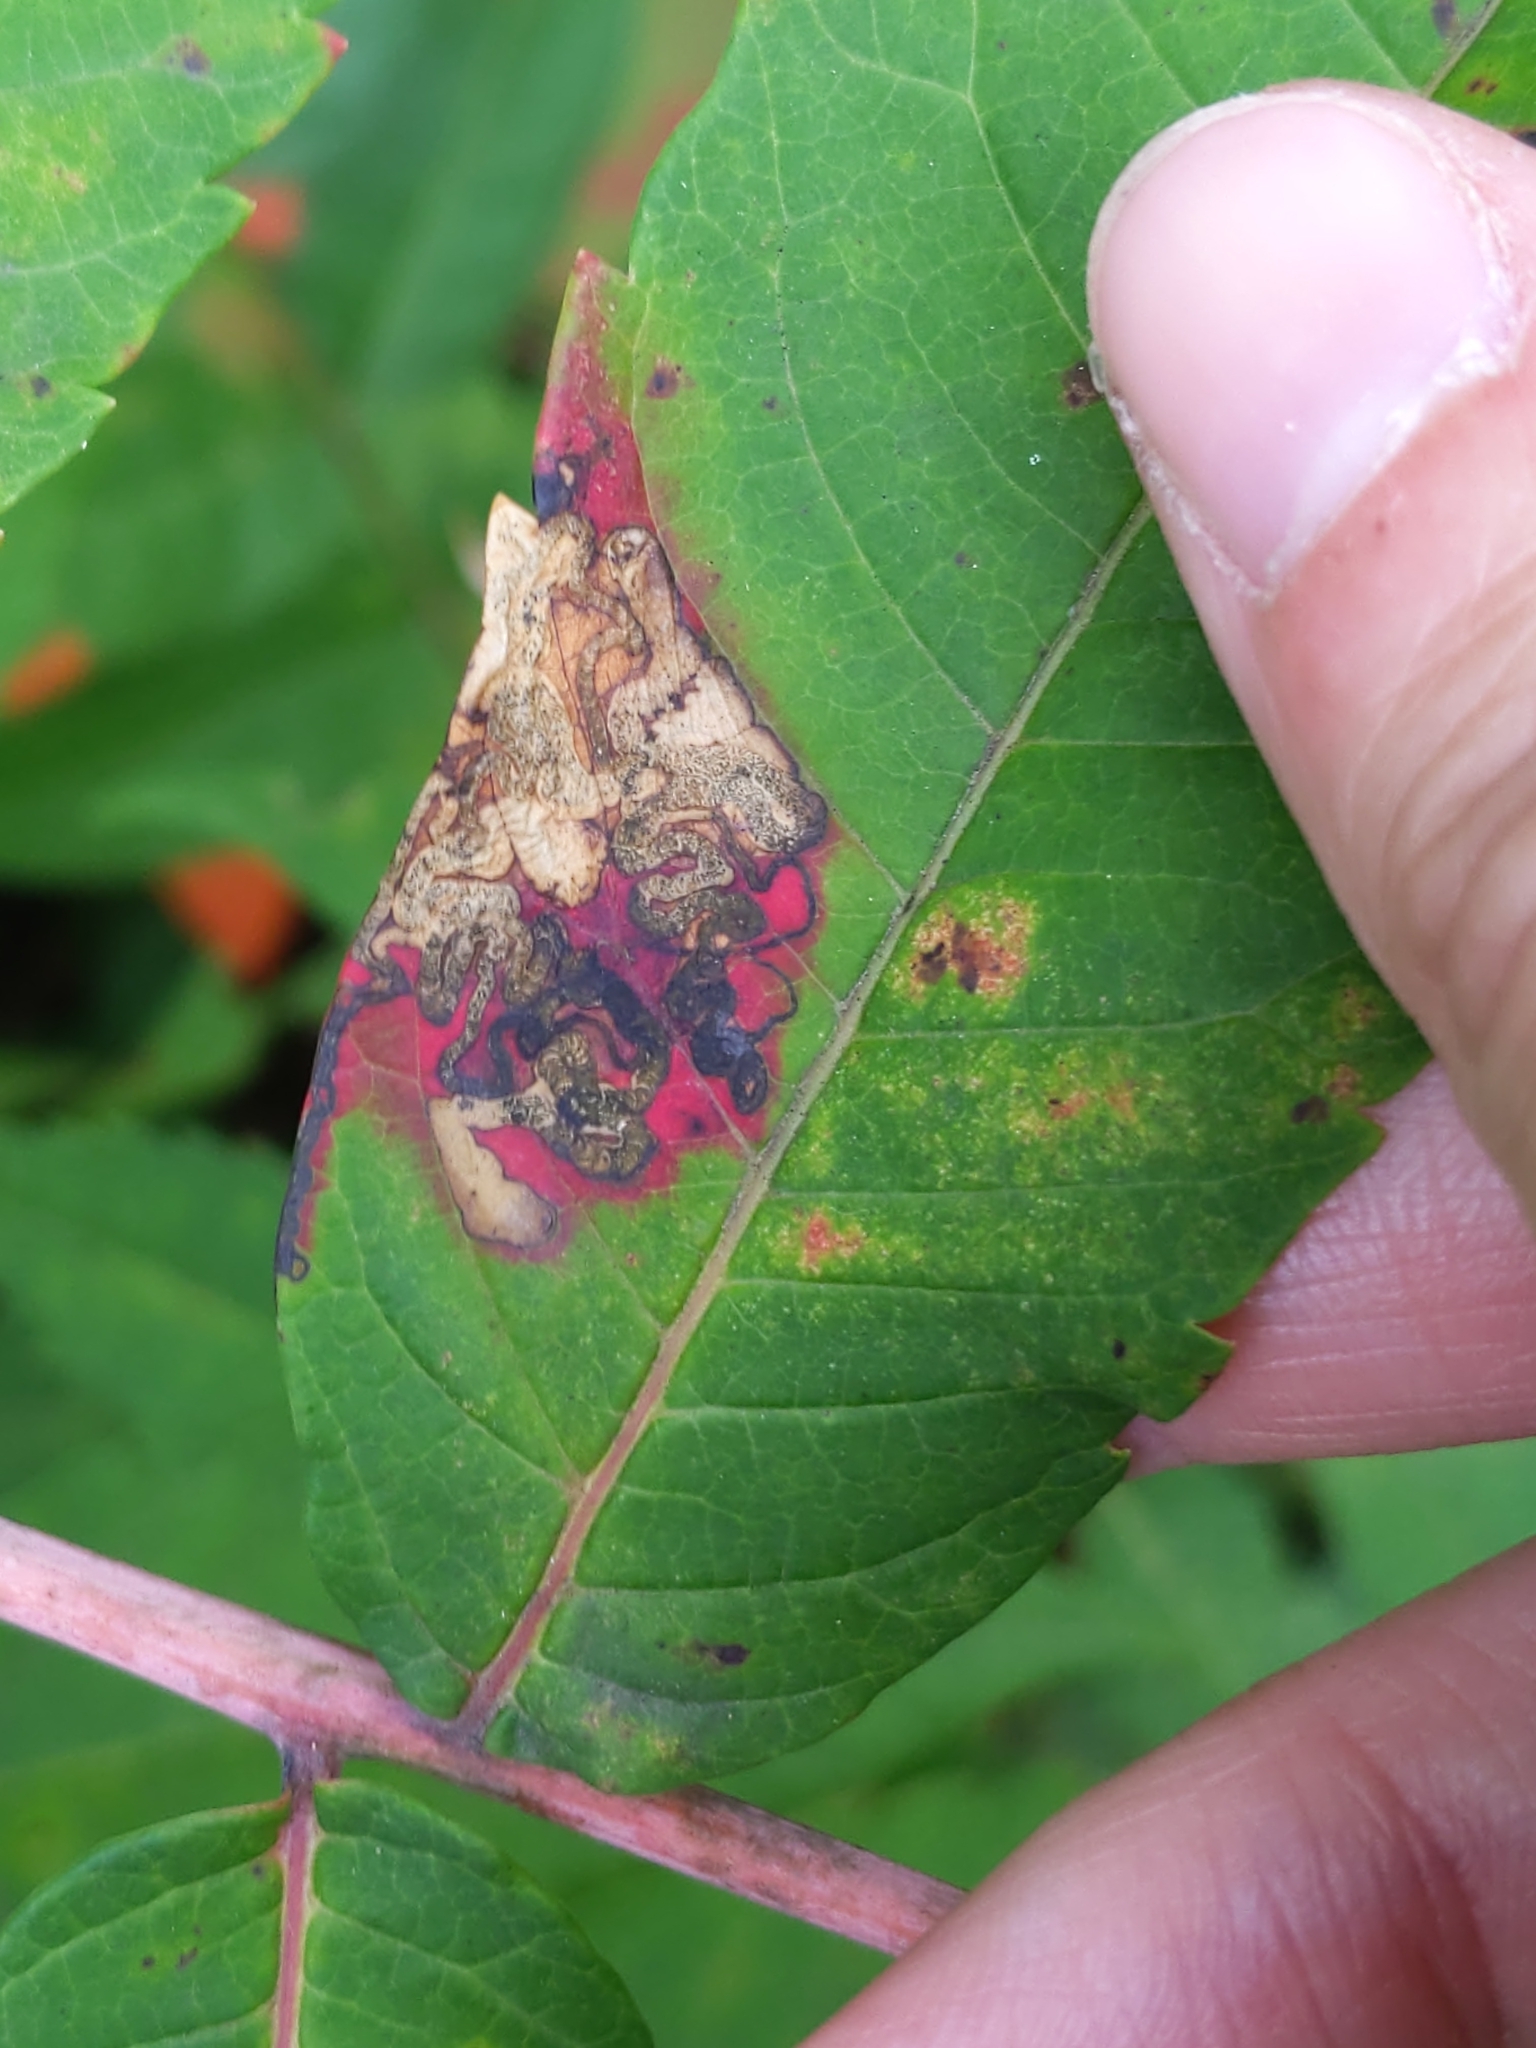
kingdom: Animalia
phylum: Arthropoda
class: Insecta
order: Lepidoptera
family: Nepticulidae
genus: Stigmella
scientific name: Stigmella intermedia
